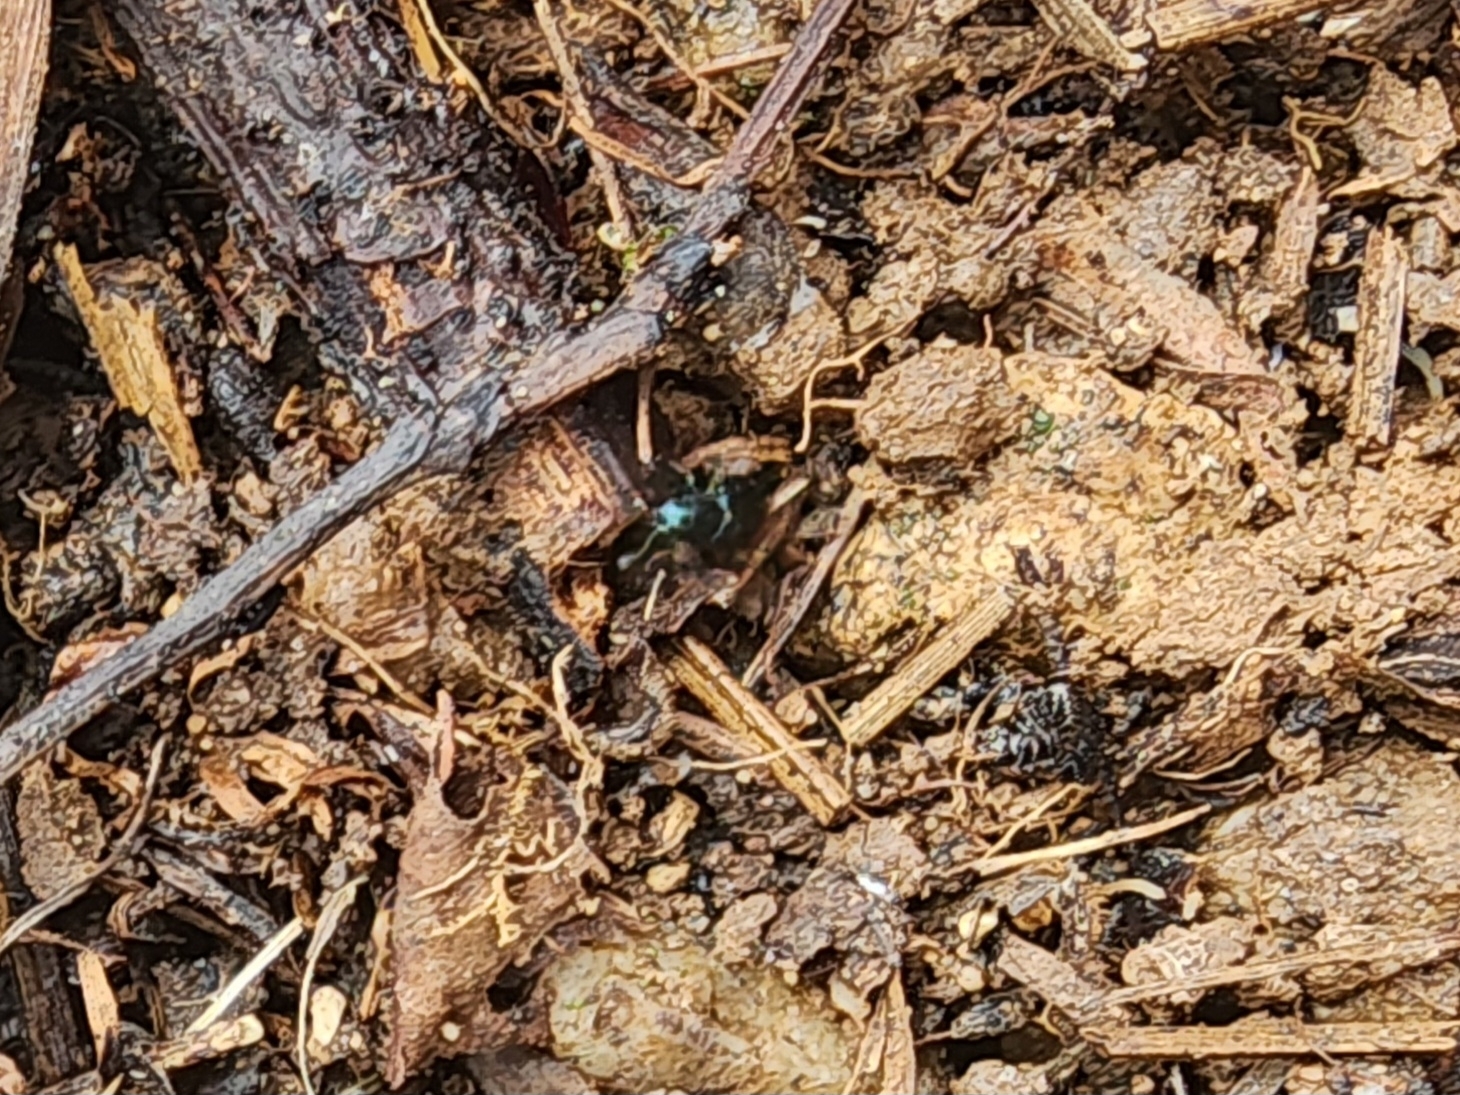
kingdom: Animalia
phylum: Arthropoda
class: Insecta
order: Coleoptera
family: Cleridae
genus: Necrobia
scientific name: Necrobia violacea
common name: Violet checkered beetle
